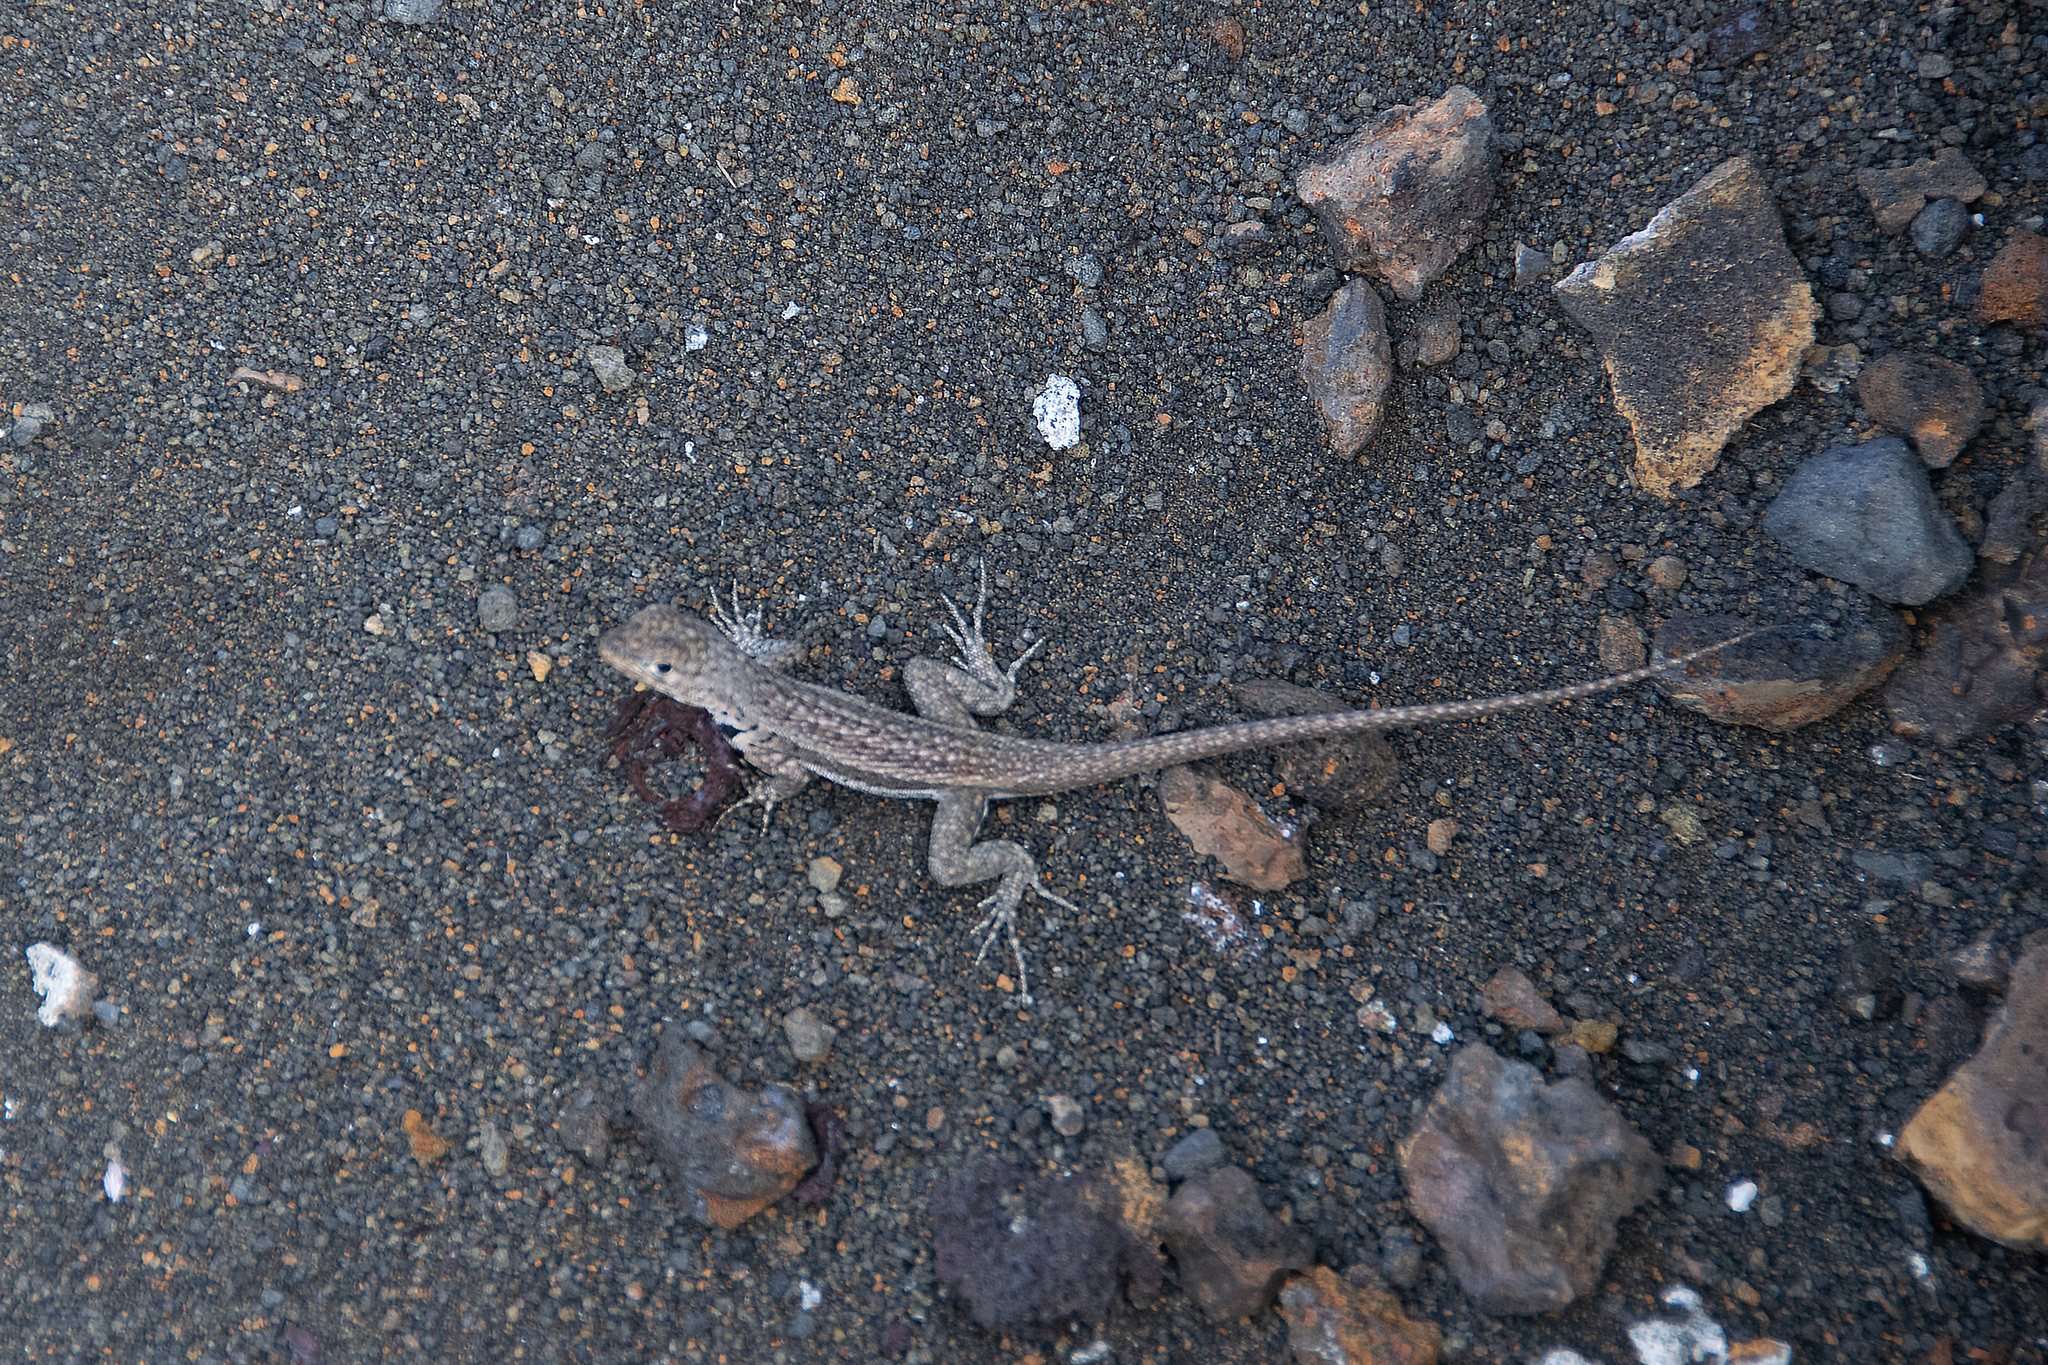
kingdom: Animalia
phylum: Chordata
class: Squamata
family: Tropiduridae
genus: Microlophus
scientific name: Microlophus jacobii
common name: Santiago lava lizard
